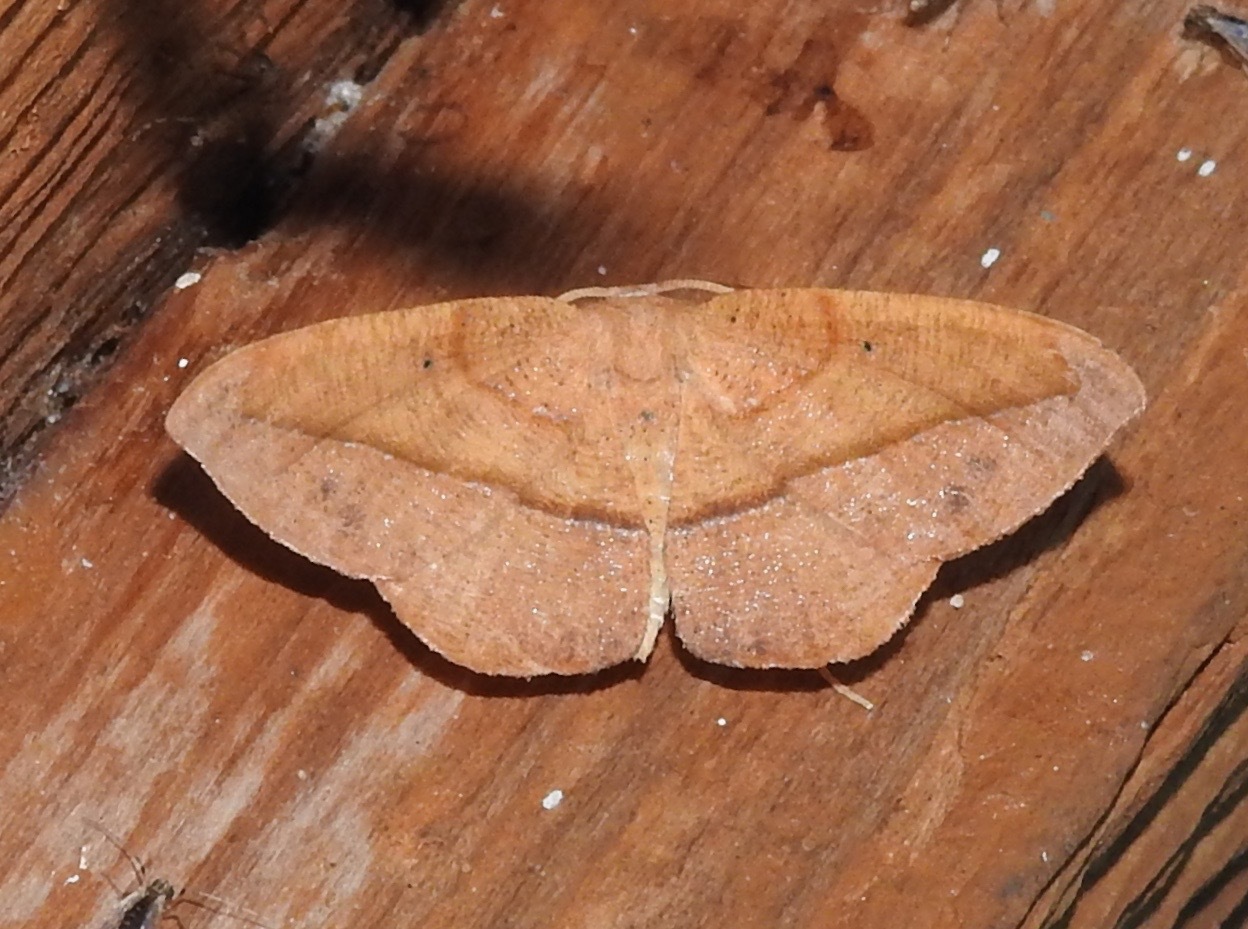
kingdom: Animalia
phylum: Arthropoda
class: Insecta
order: Lepidoptera
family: Geometridae
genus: Patalene
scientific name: Patalene olyzonaria
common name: Juniper geometer moth
